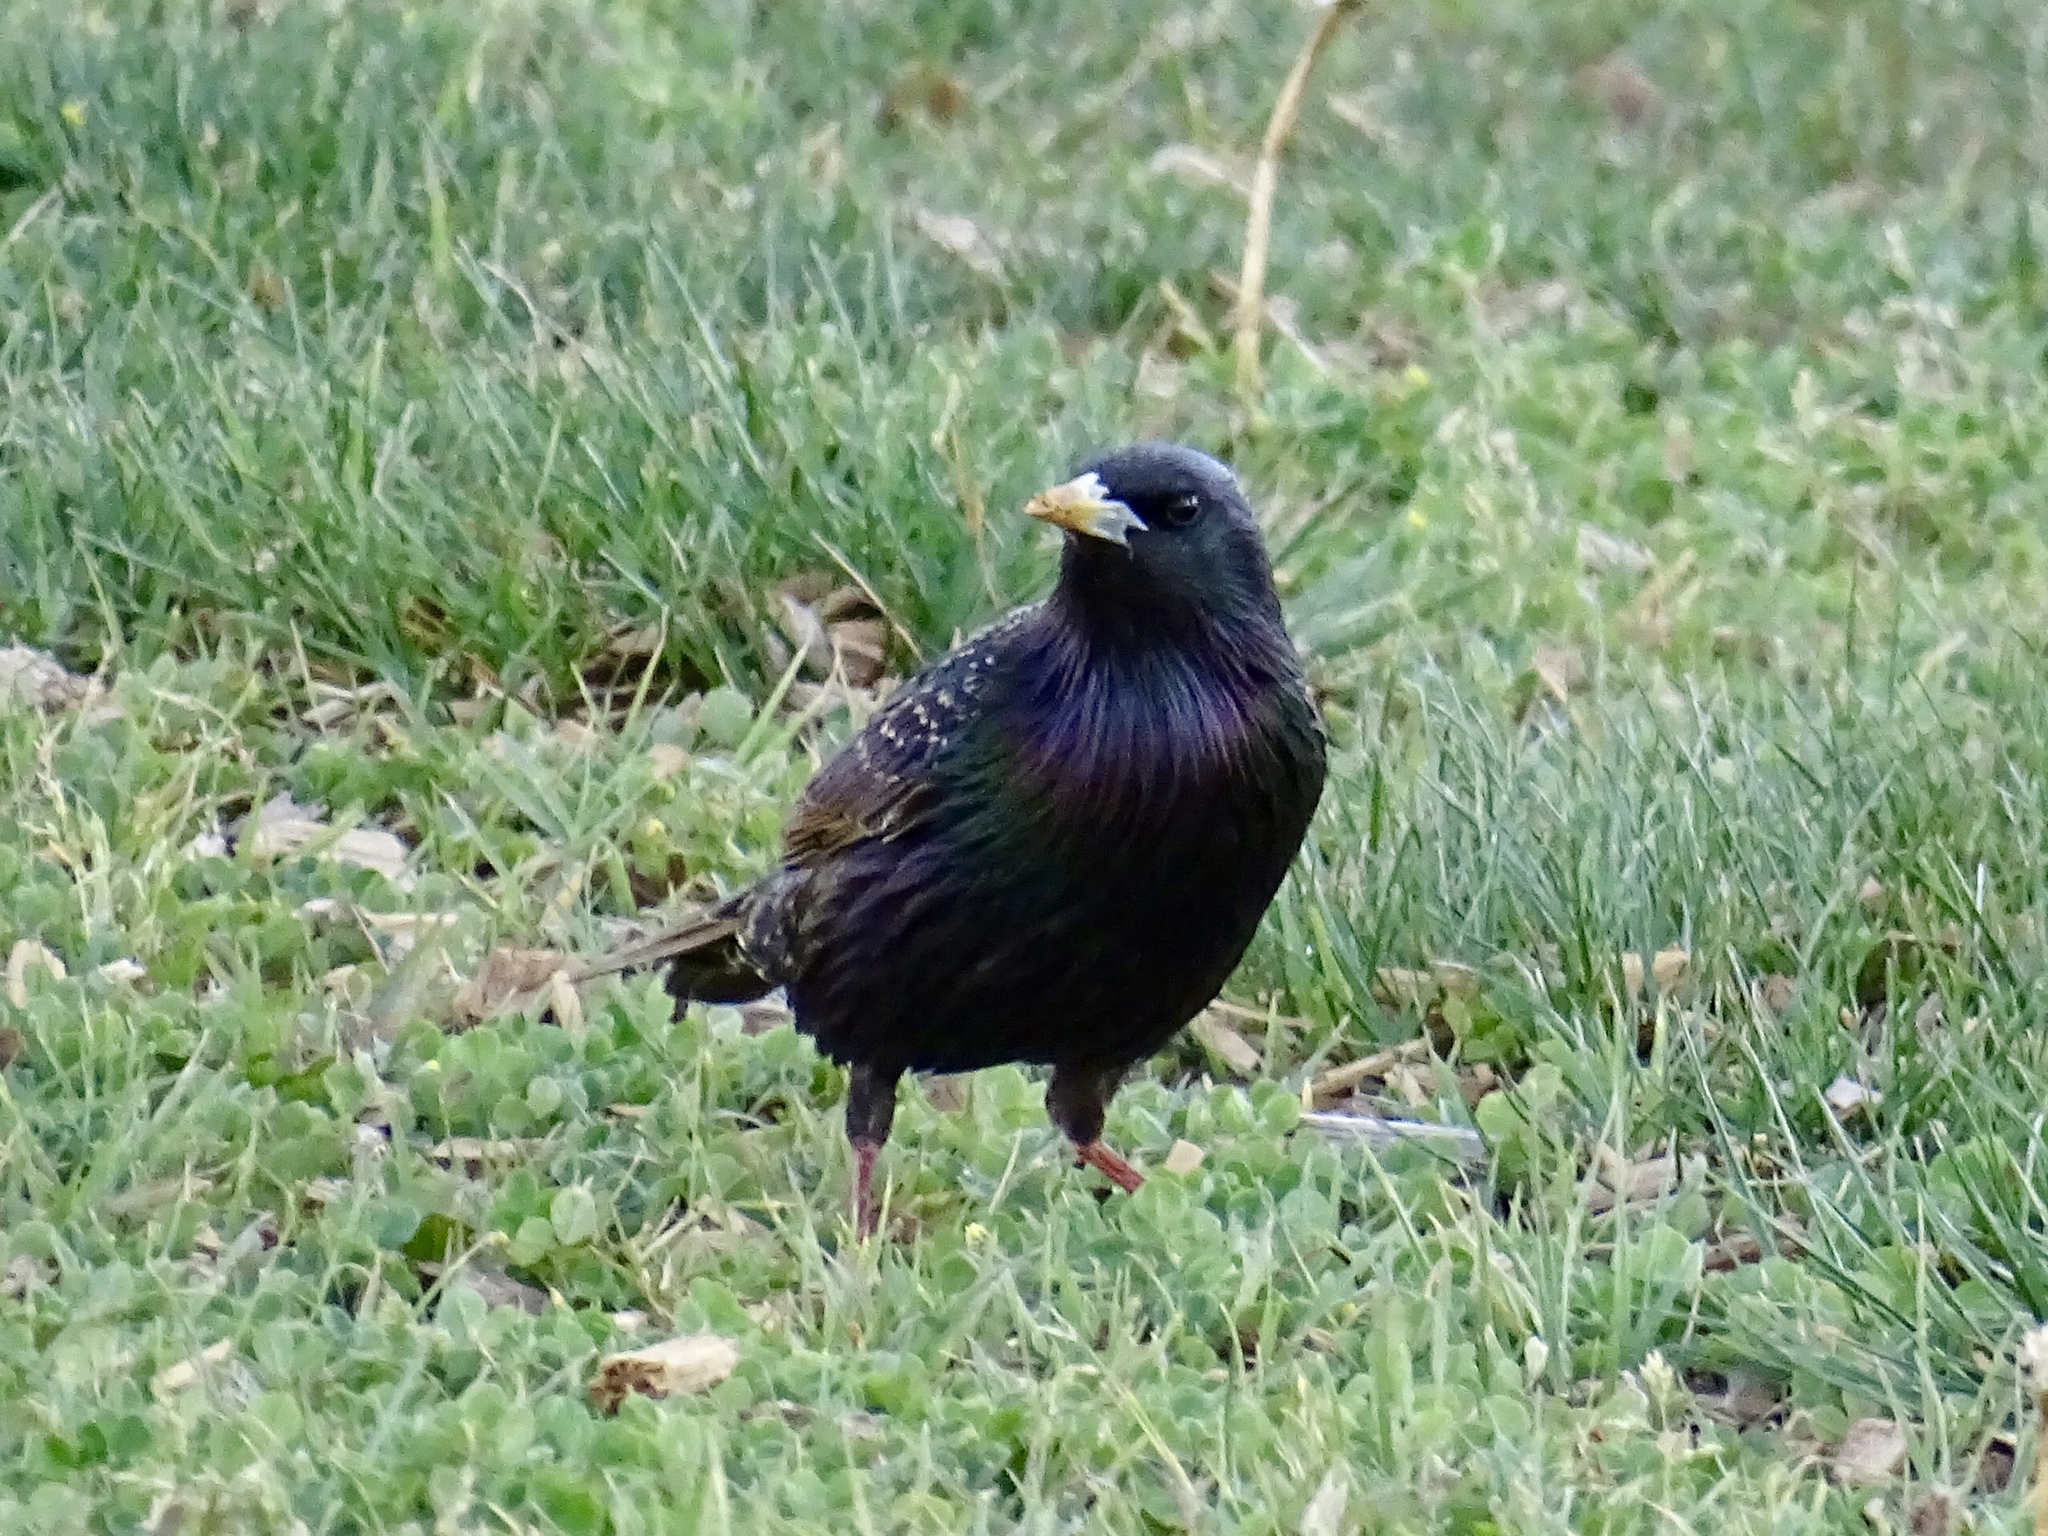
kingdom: Animalia
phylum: Chordata
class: Aves
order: Passeriformes
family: Sturnidae
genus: Sturnus
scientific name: Sturnus vulgaris
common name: Common starling
